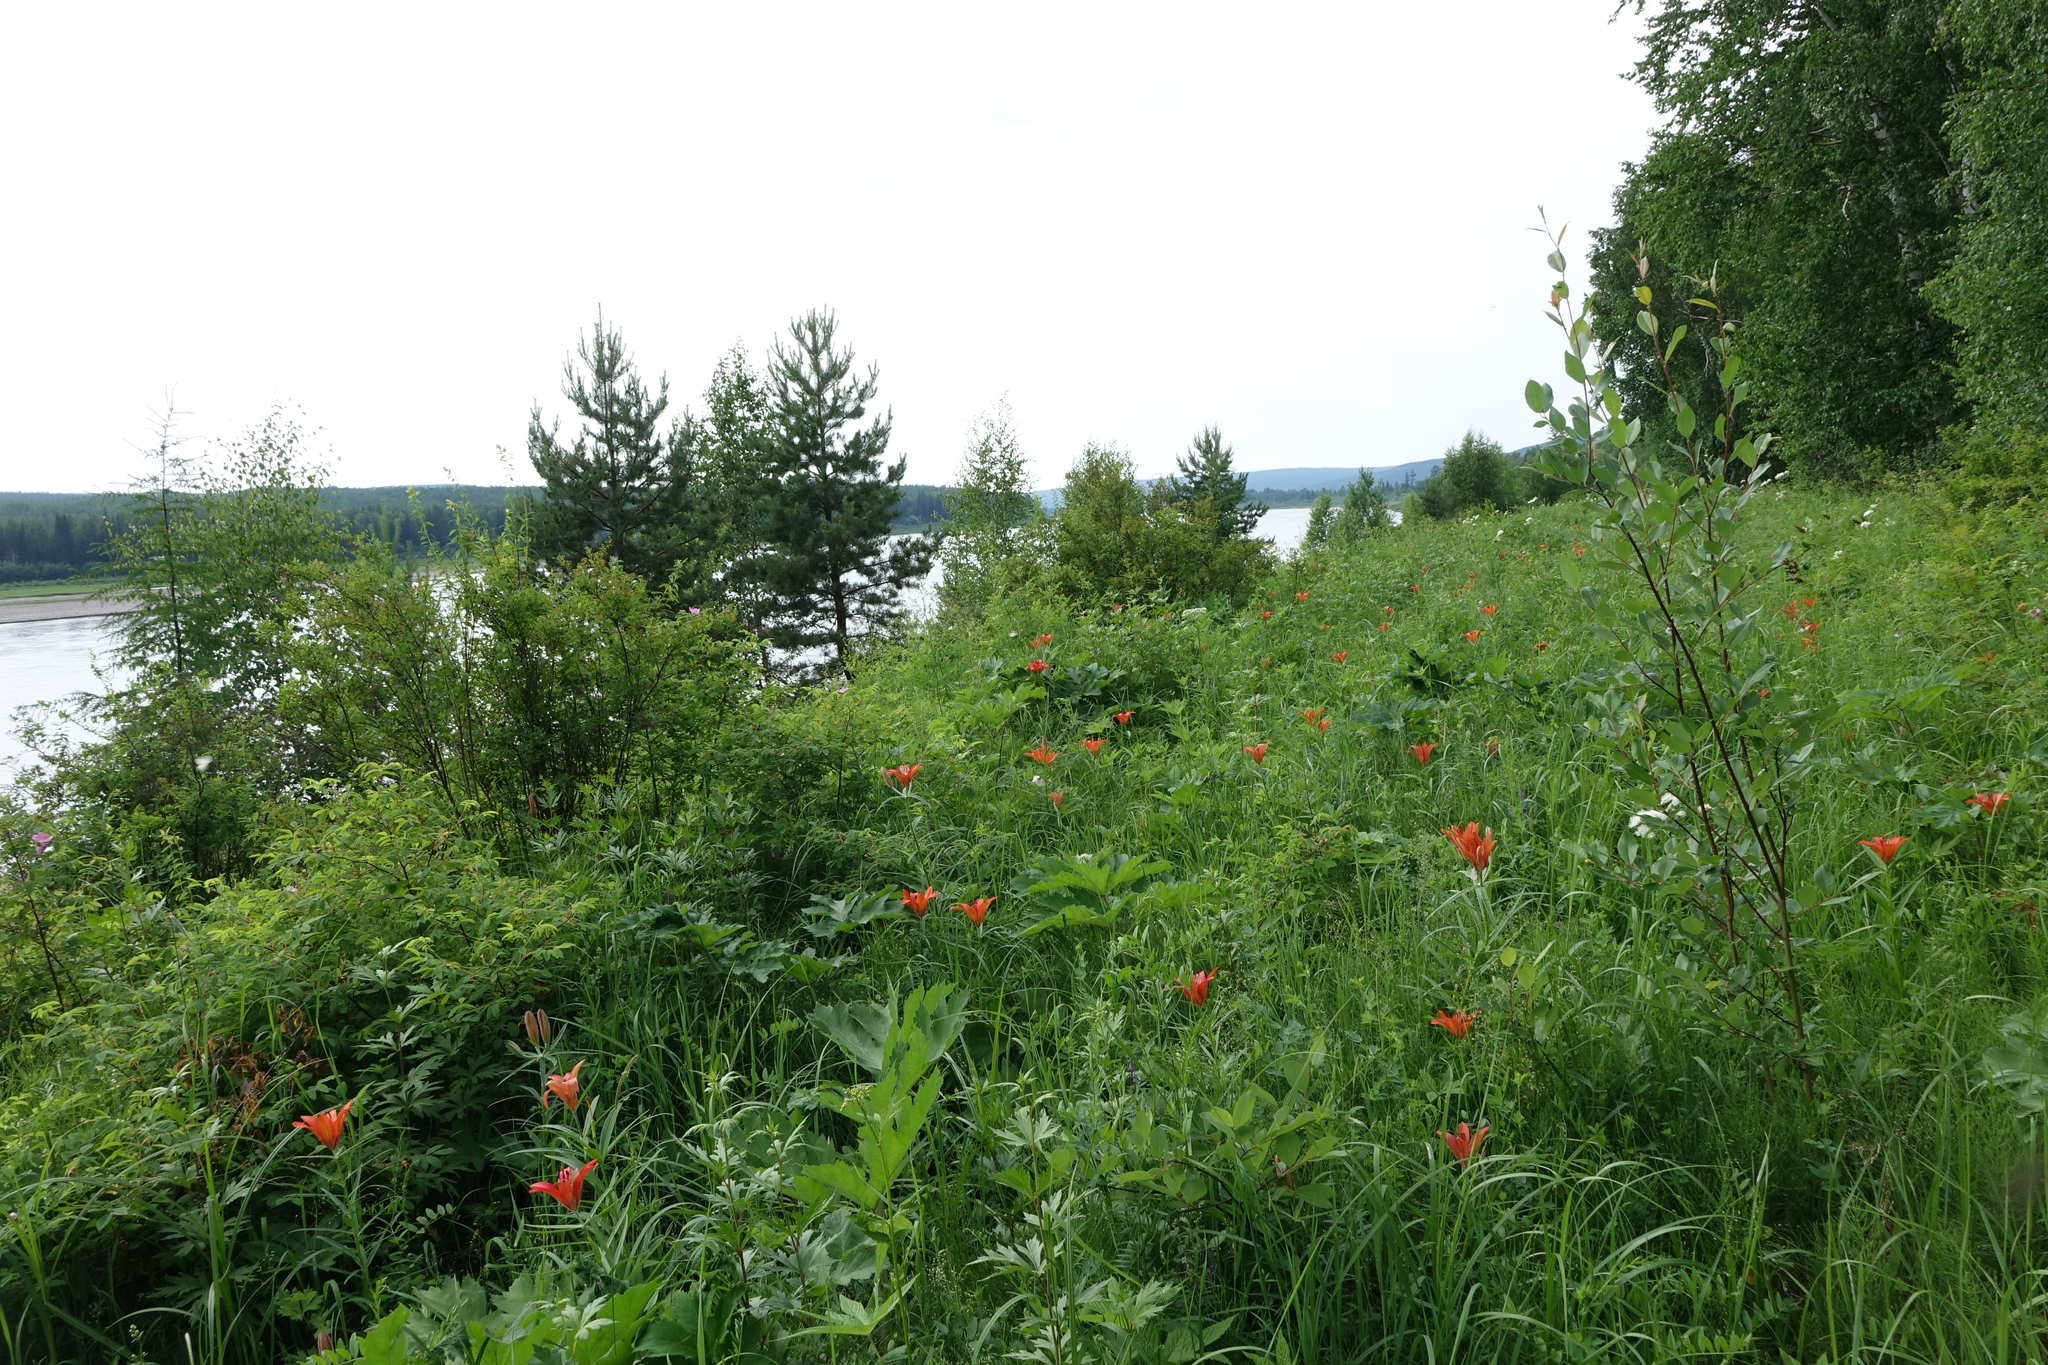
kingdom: Plantae
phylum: Tracheophyta
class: Pinopsida
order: Pinales
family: Pinaceae
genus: Pinus
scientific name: Pinus sylvestris
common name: Scots pine
